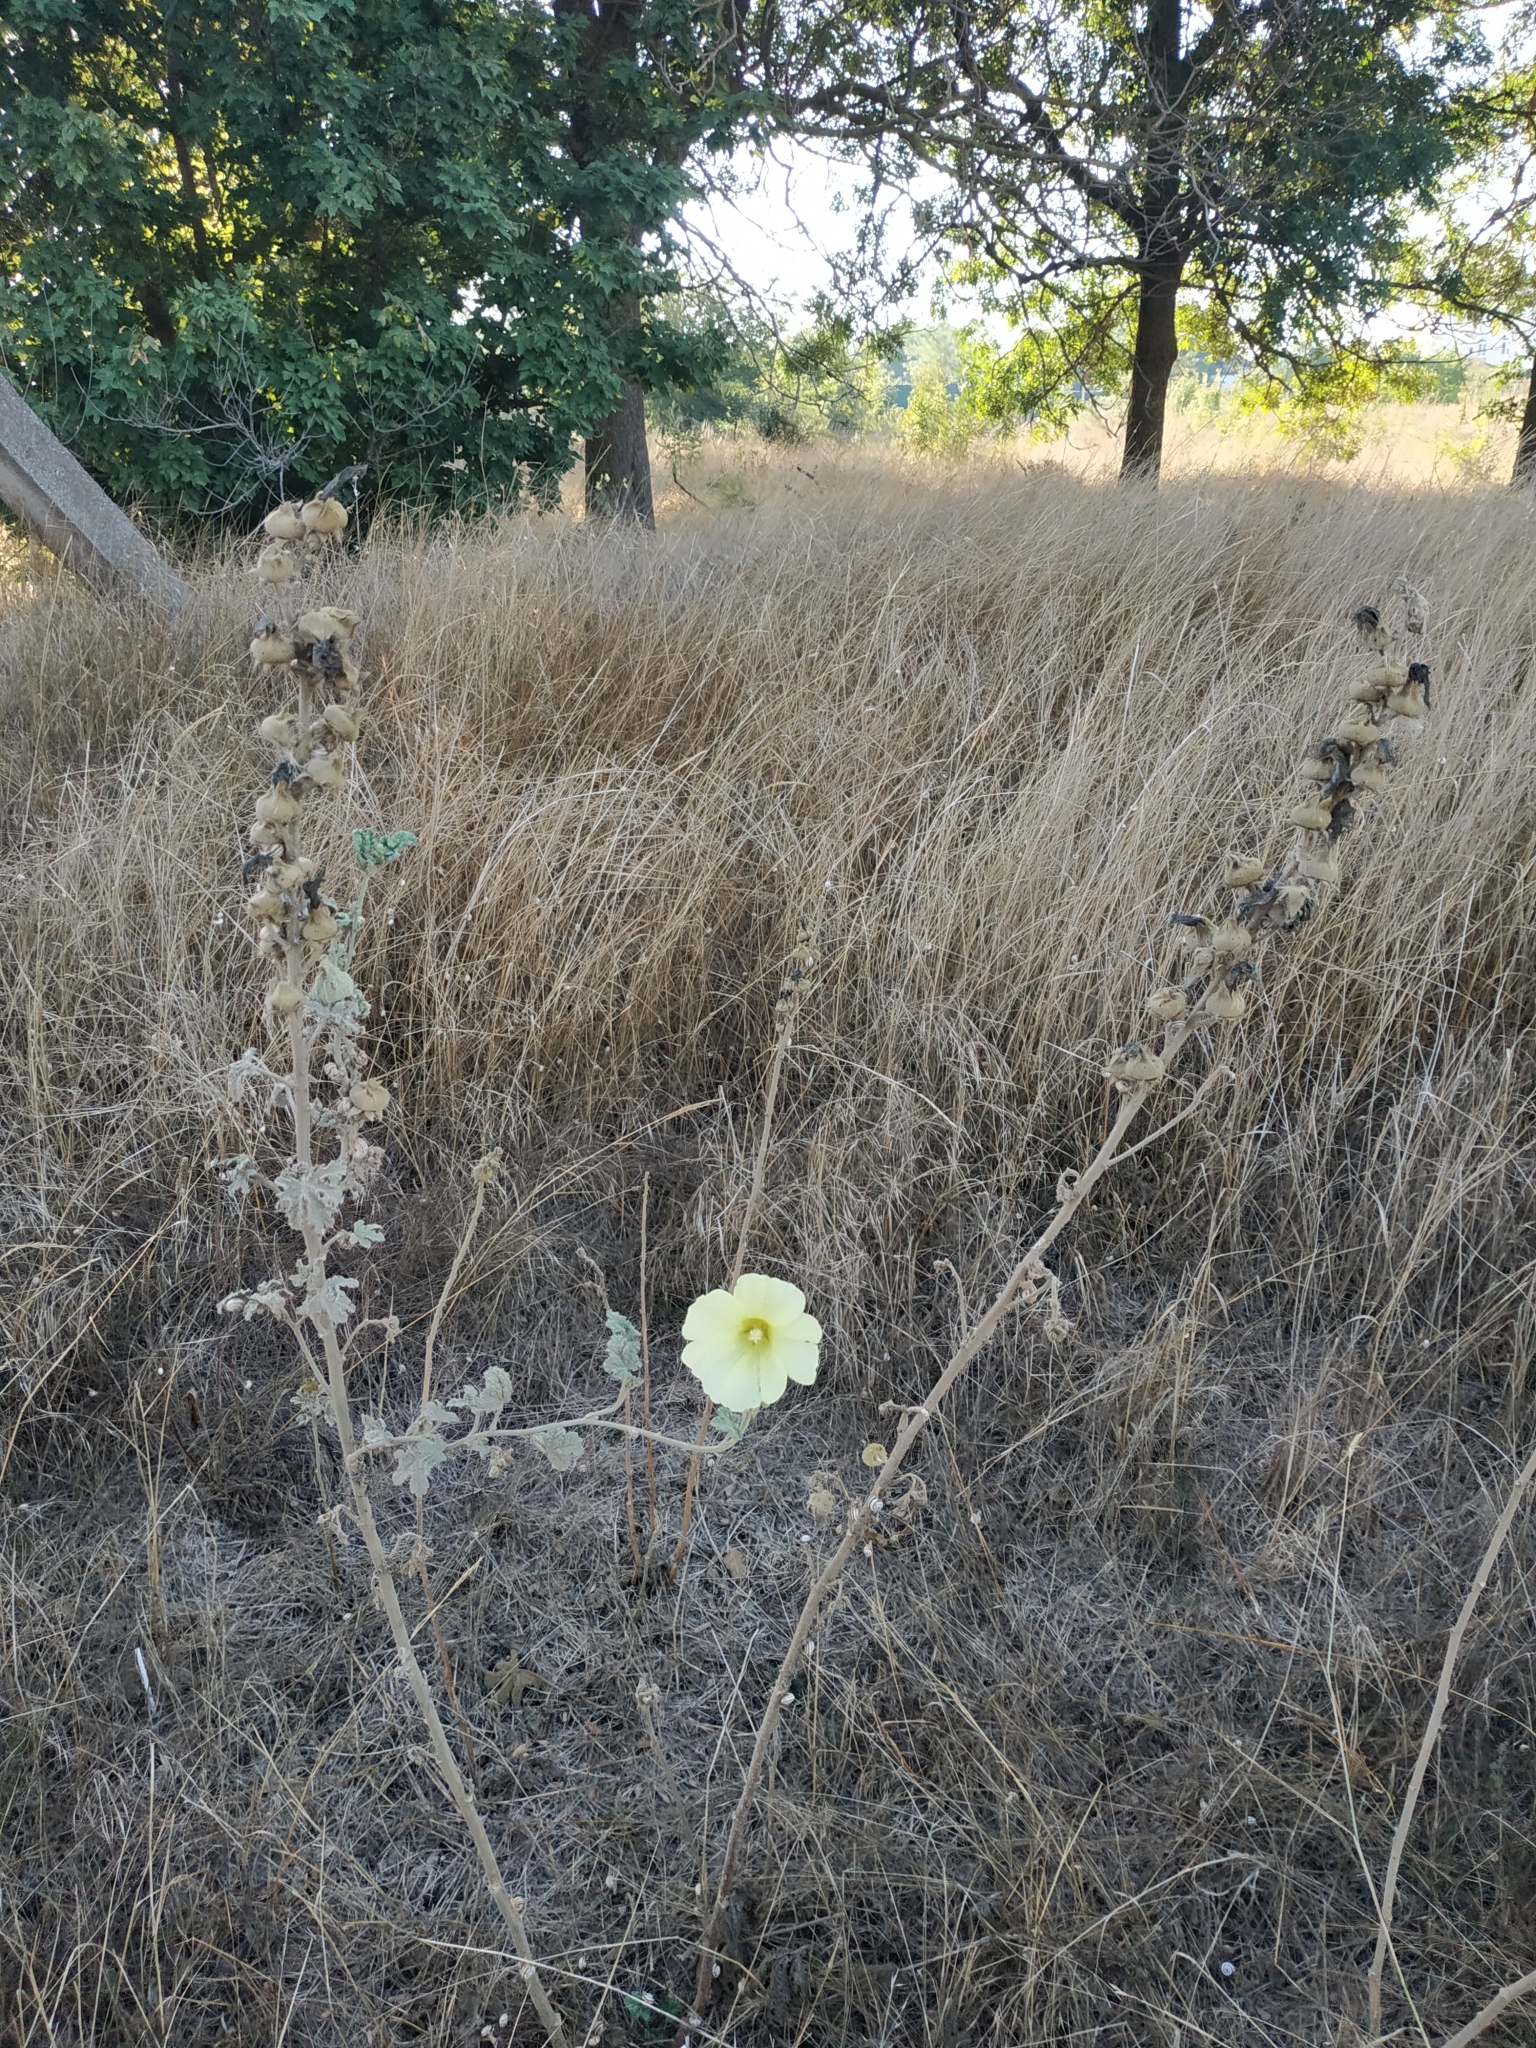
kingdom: Plantae
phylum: Tracheophyta
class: Magnoliopsida
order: Malvales
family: Malvaceae
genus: Alcea
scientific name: Alcea rugosa
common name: Russian hollyhock
